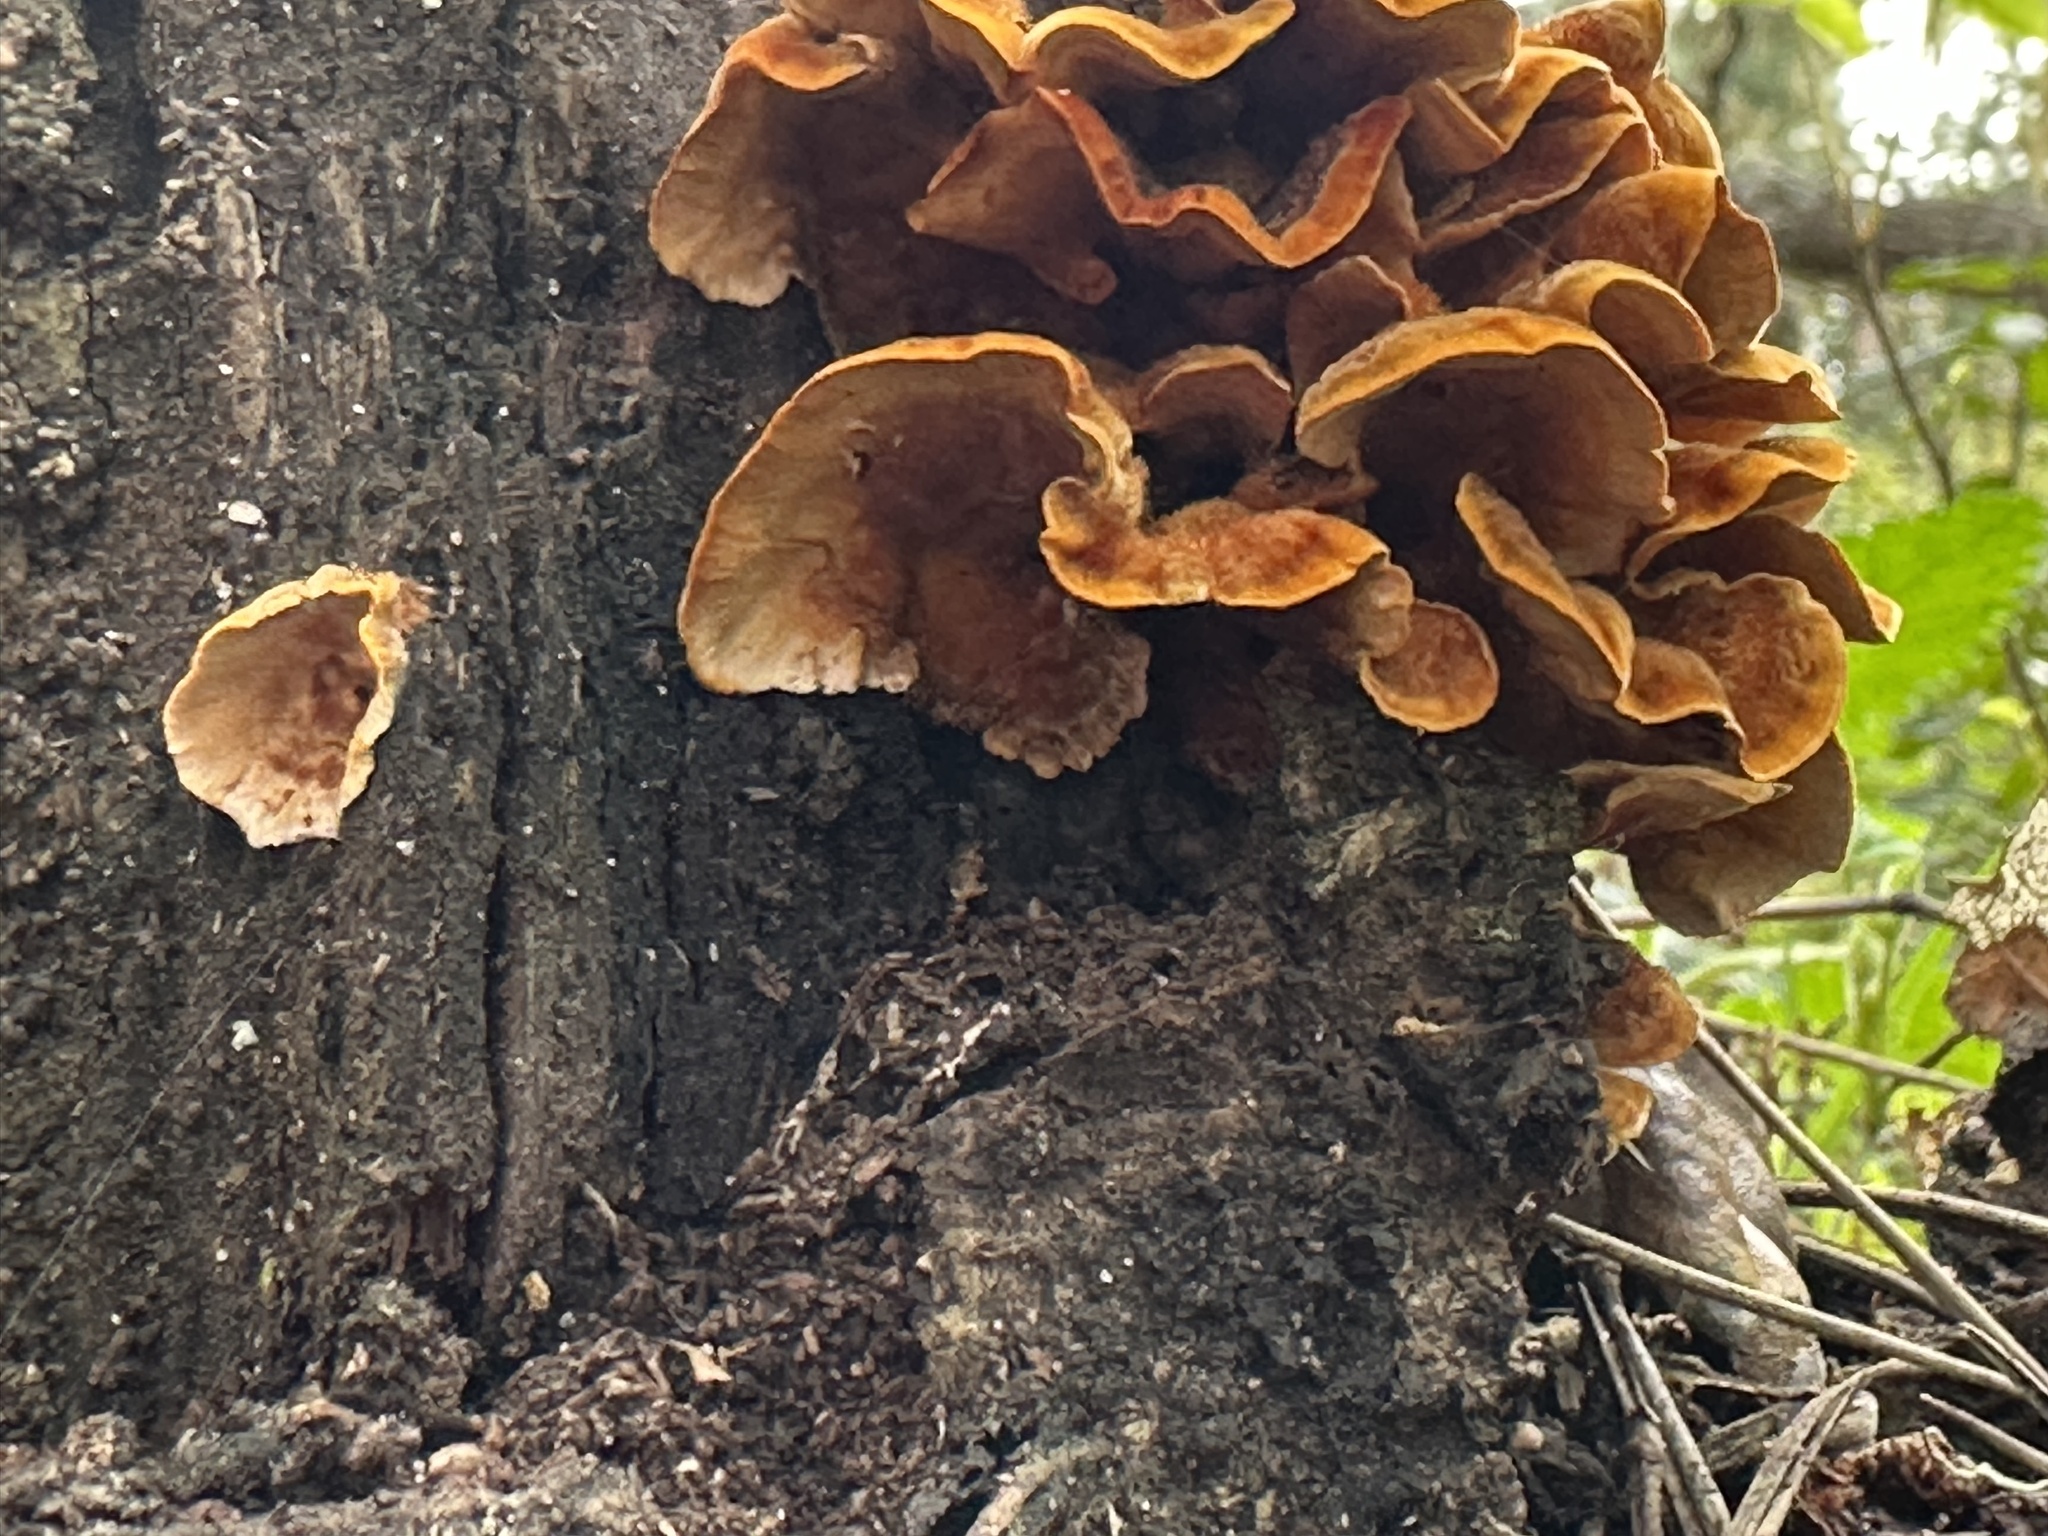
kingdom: Fungi
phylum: Basidiomycota
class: Agaricomycetes
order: Russulales
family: Stereaceae
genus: Stereum
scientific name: Stereum hirsutum
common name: Hairy curtain crust
